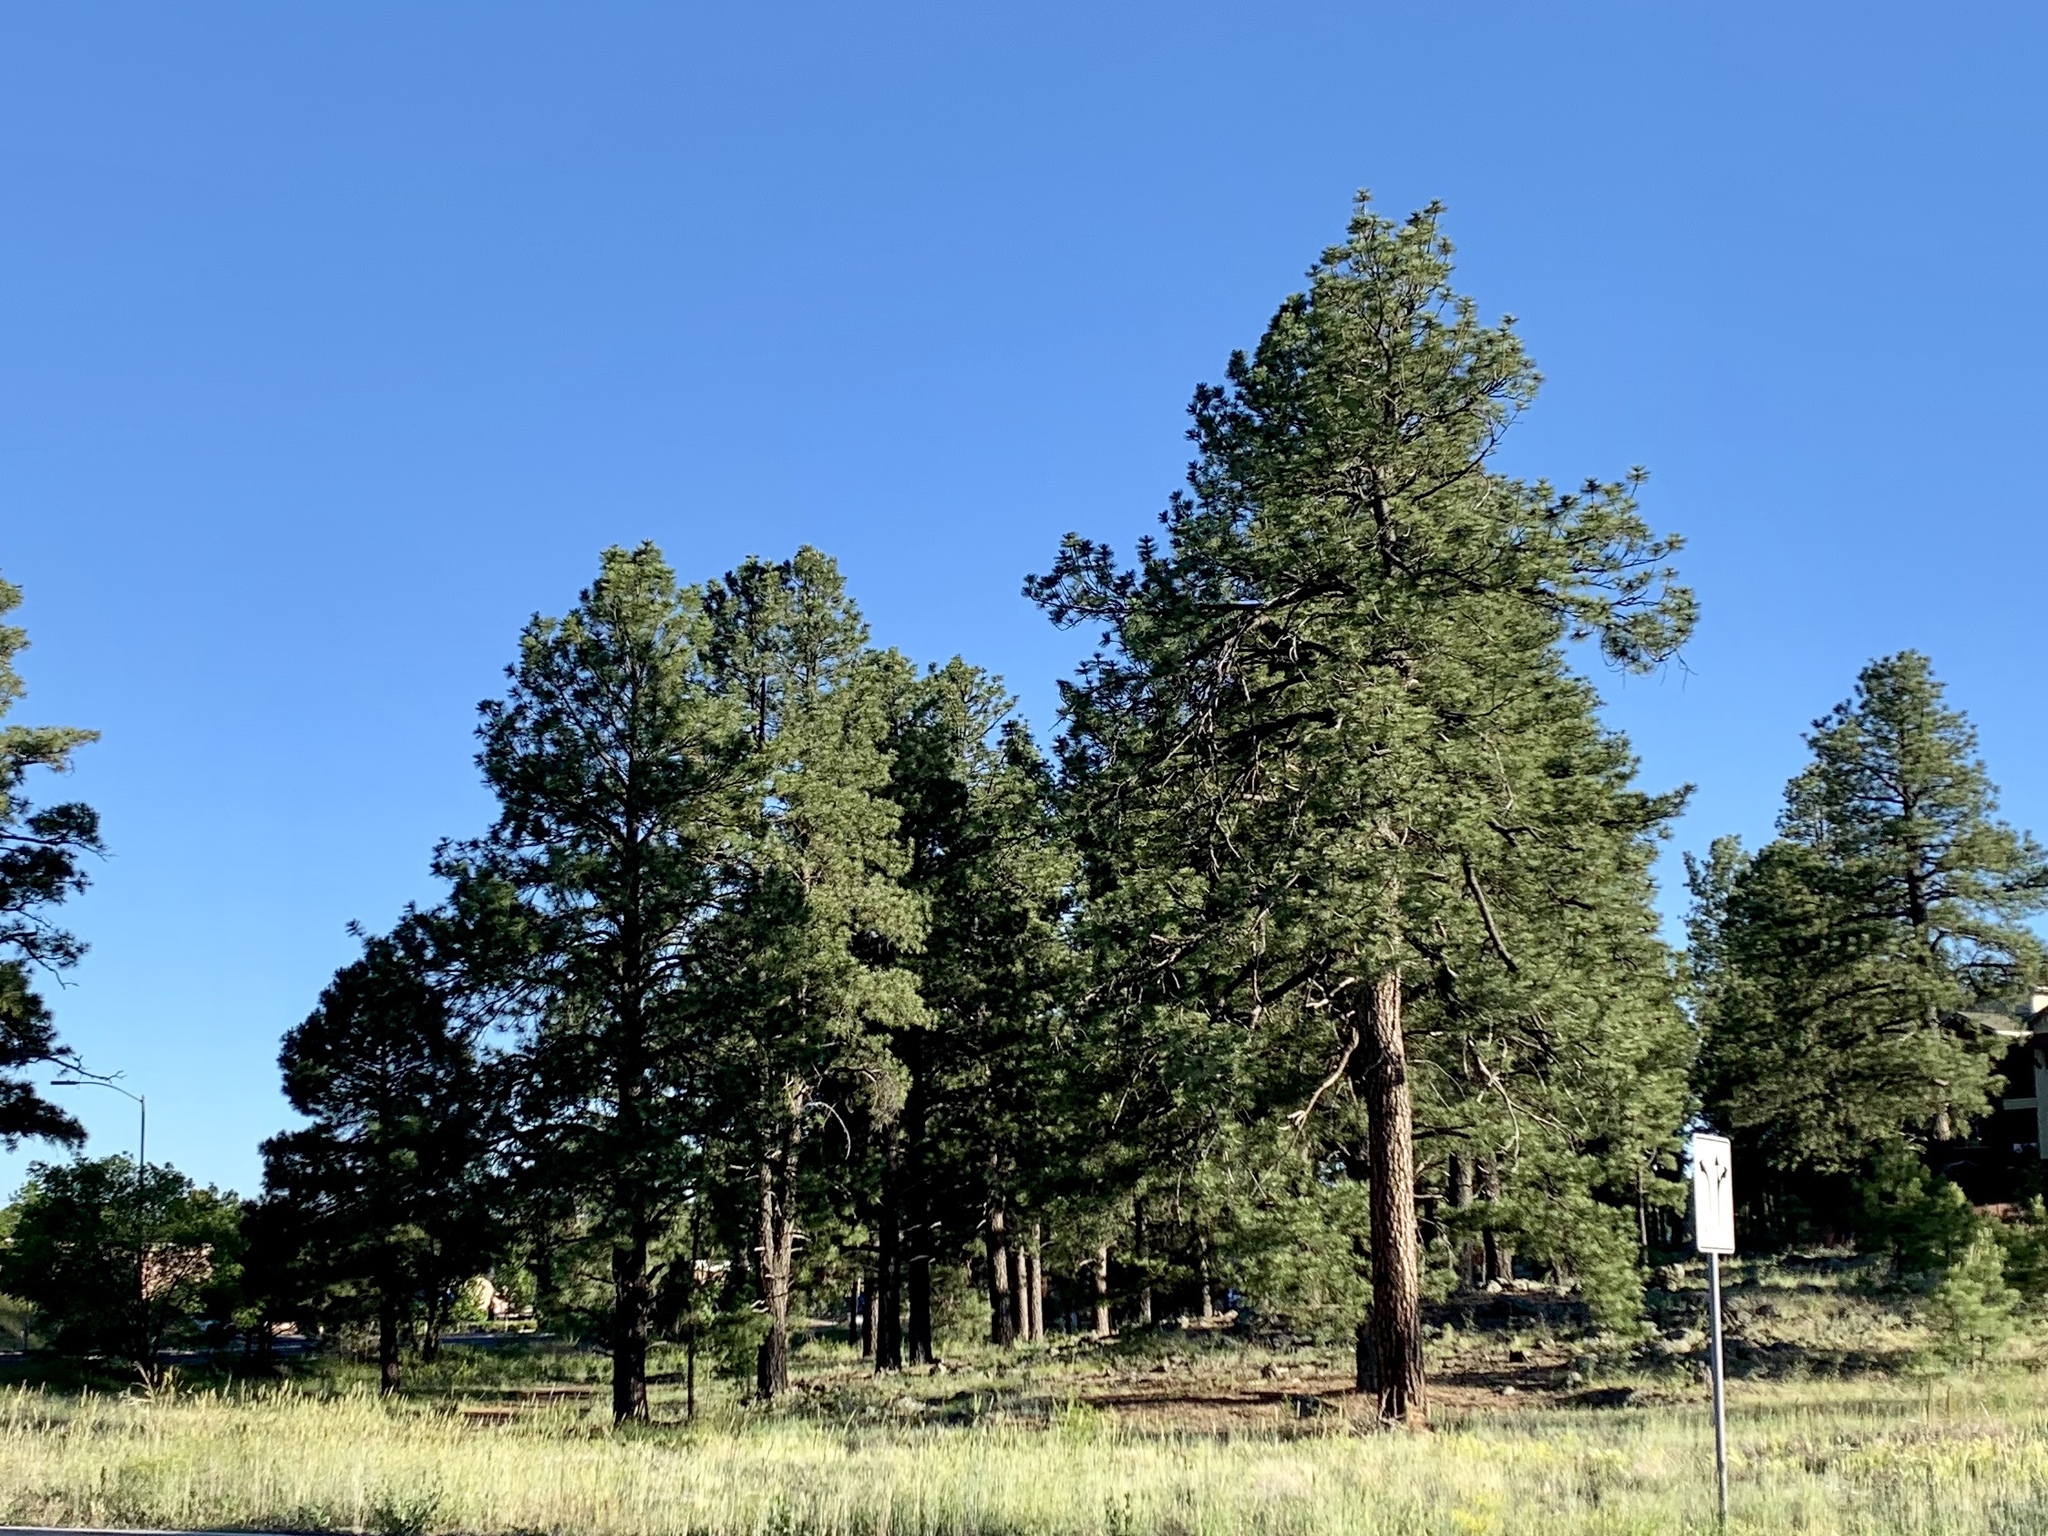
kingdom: Plantae
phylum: Tracheophyta
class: Pinopsida
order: Pinales
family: Pinaceae
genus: Pinus
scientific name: Pinus ponderosa
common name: Western yellow-pine
